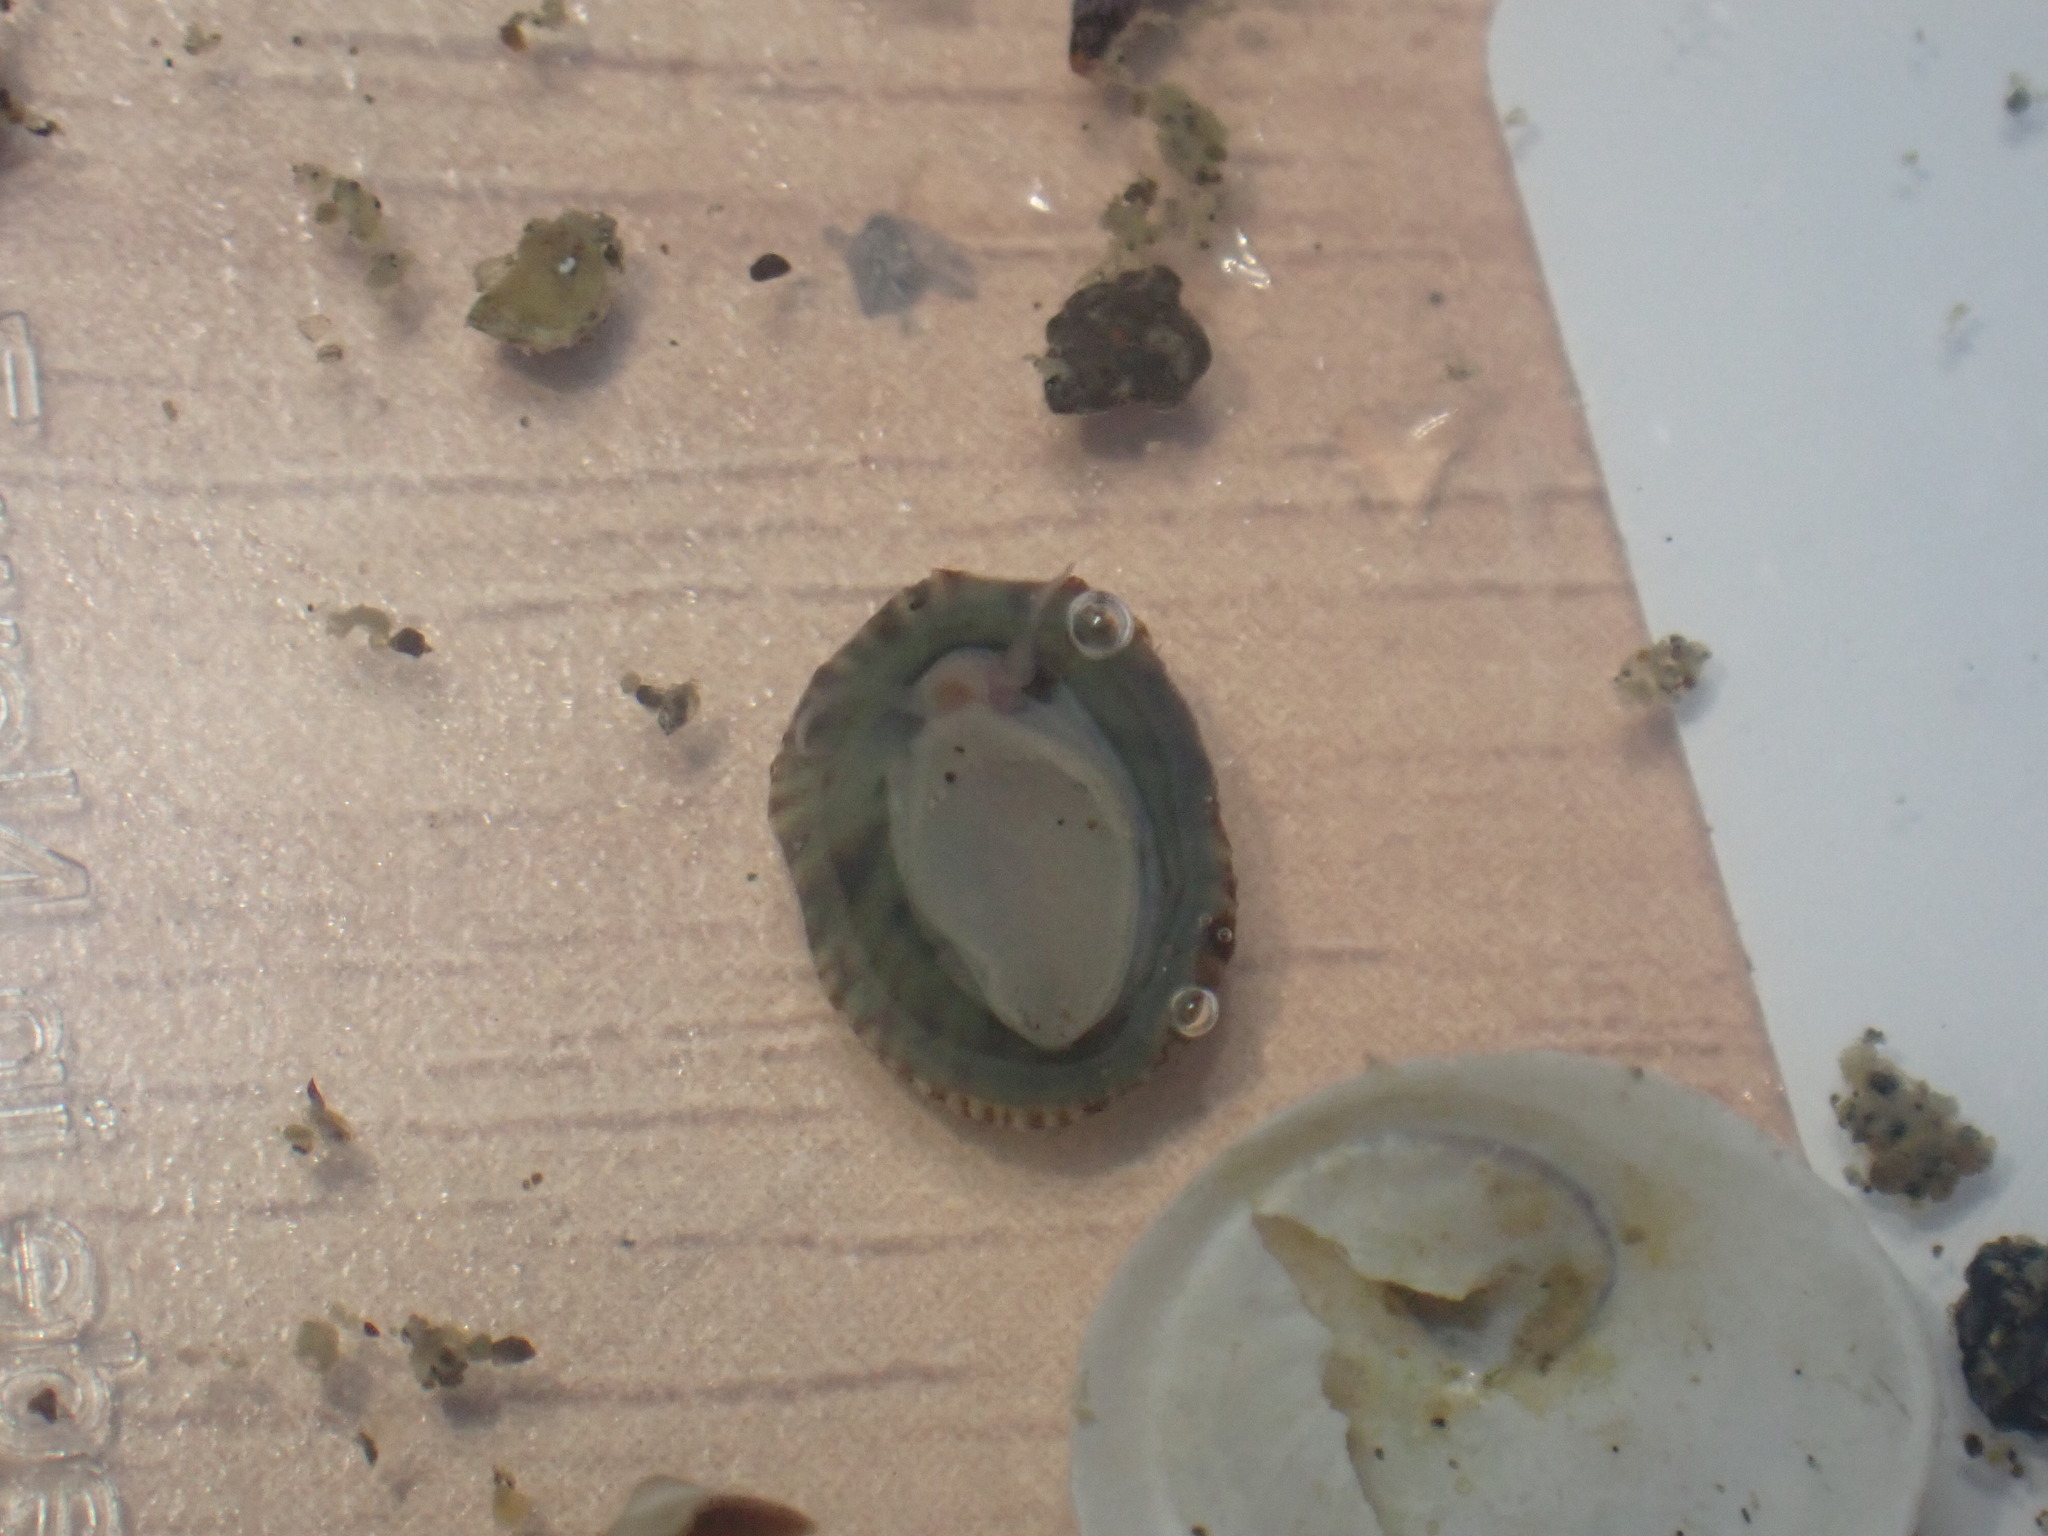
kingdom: Animalia
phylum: Mollusca
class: Gastropoda
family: Lottiidae
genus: Notoacmea
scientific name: Notoacmea
